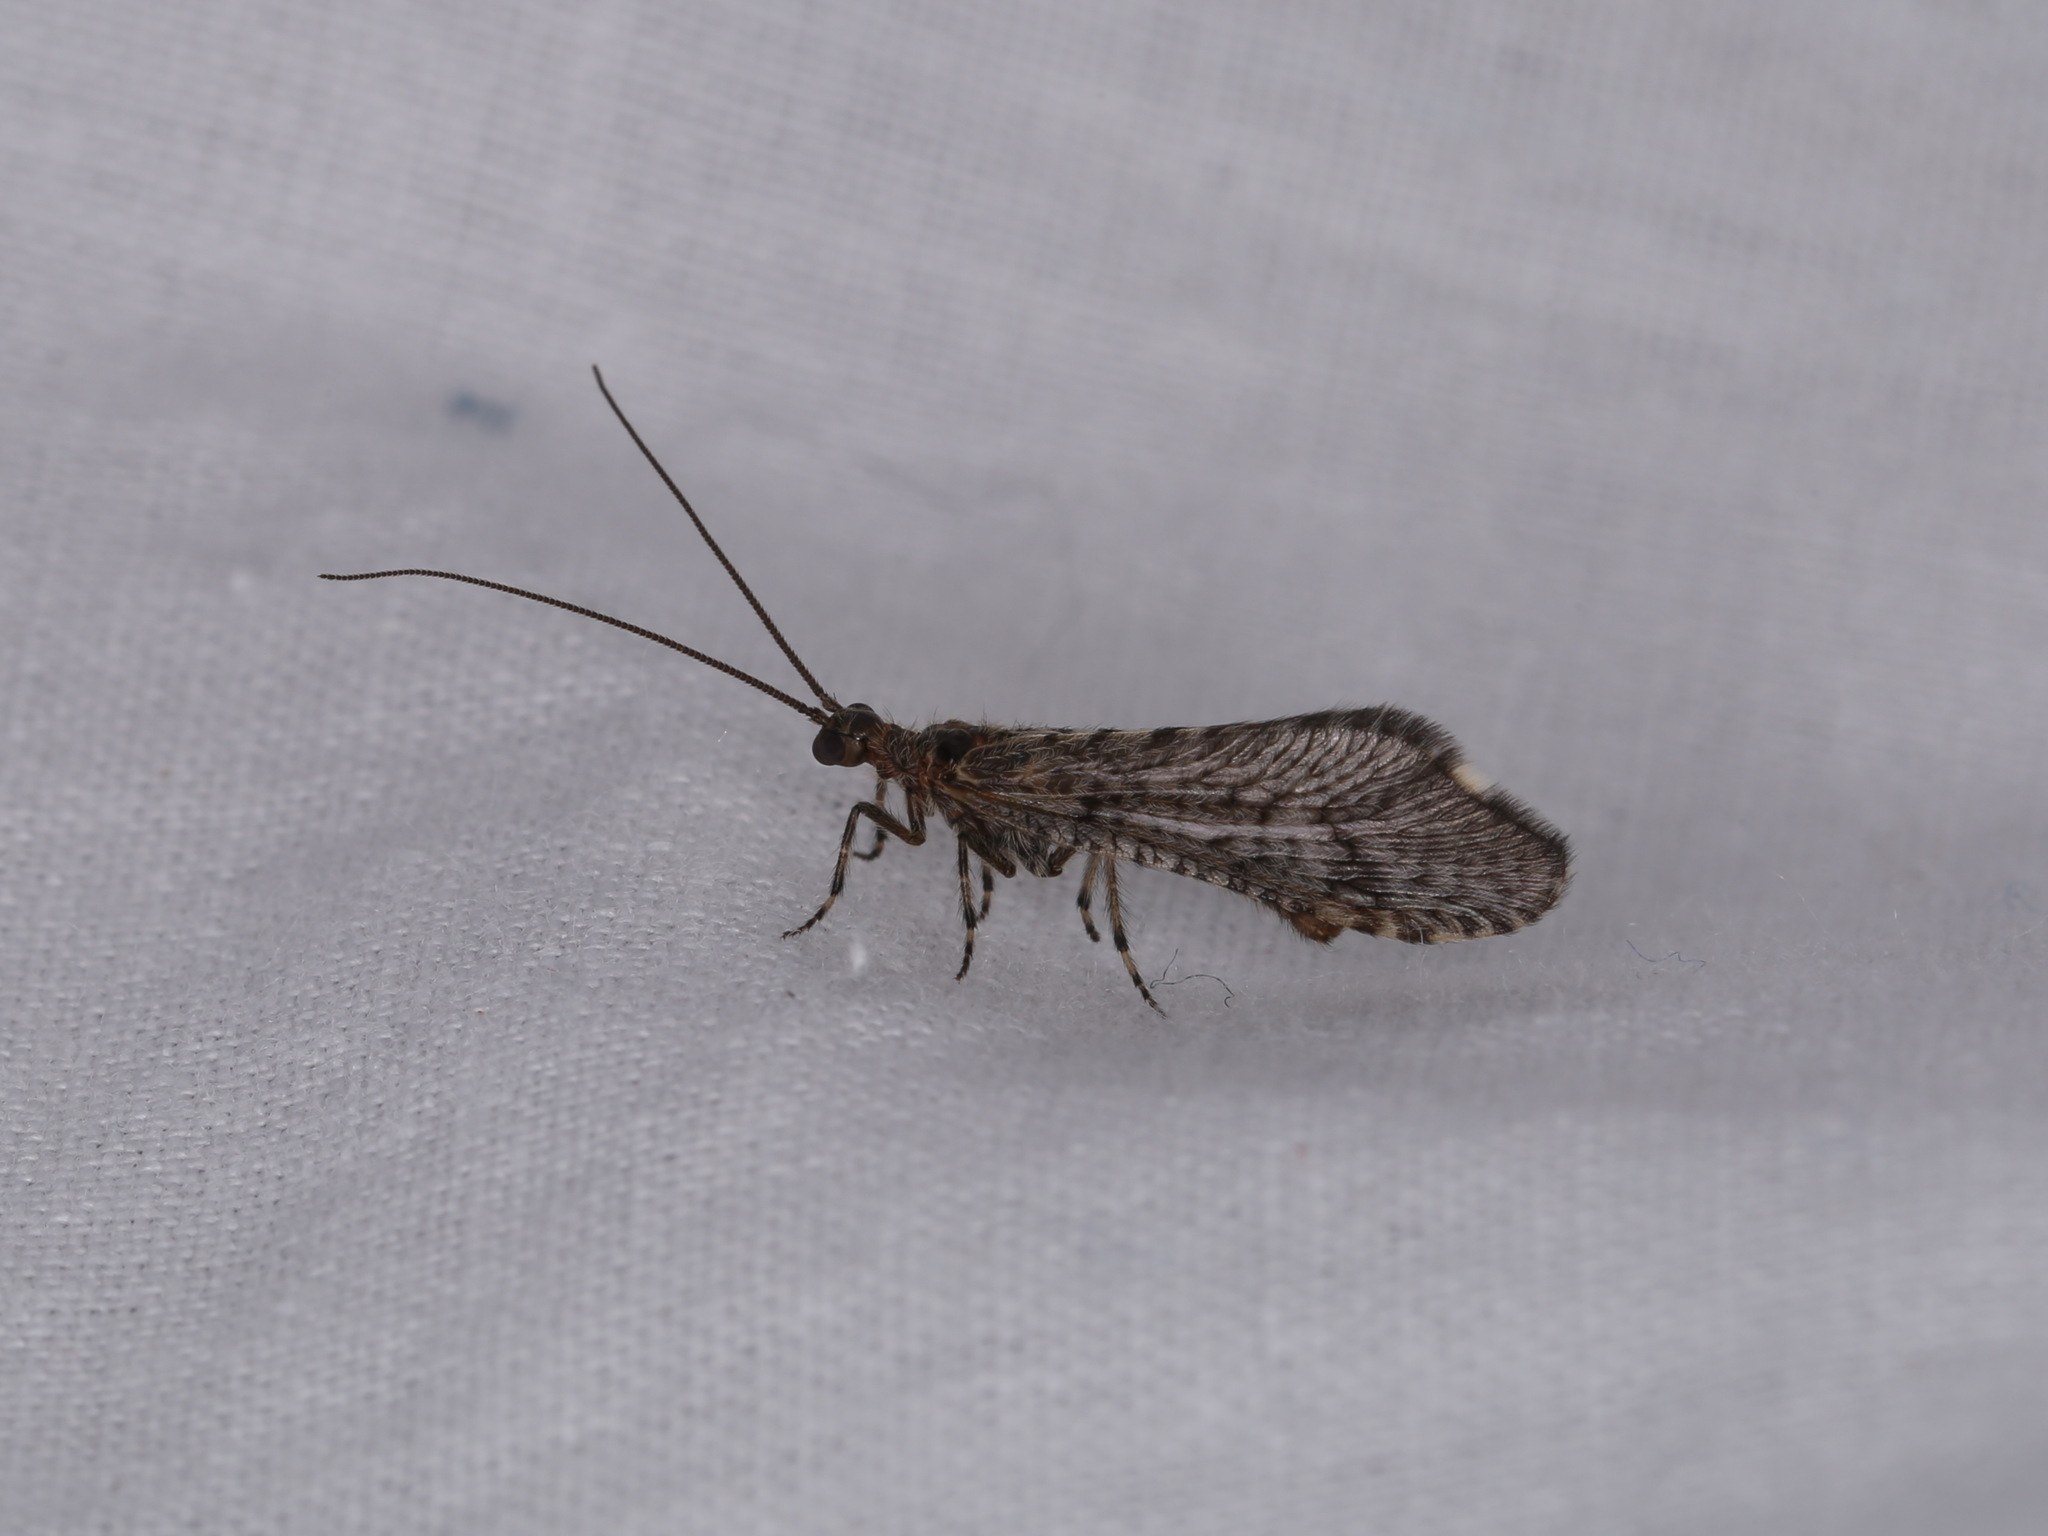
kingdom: Animalia
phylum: Arthropoda
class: Insecta
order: Neuroptera
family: Berothidae
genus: Trichoma
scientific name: Trichoma gracilipenne
